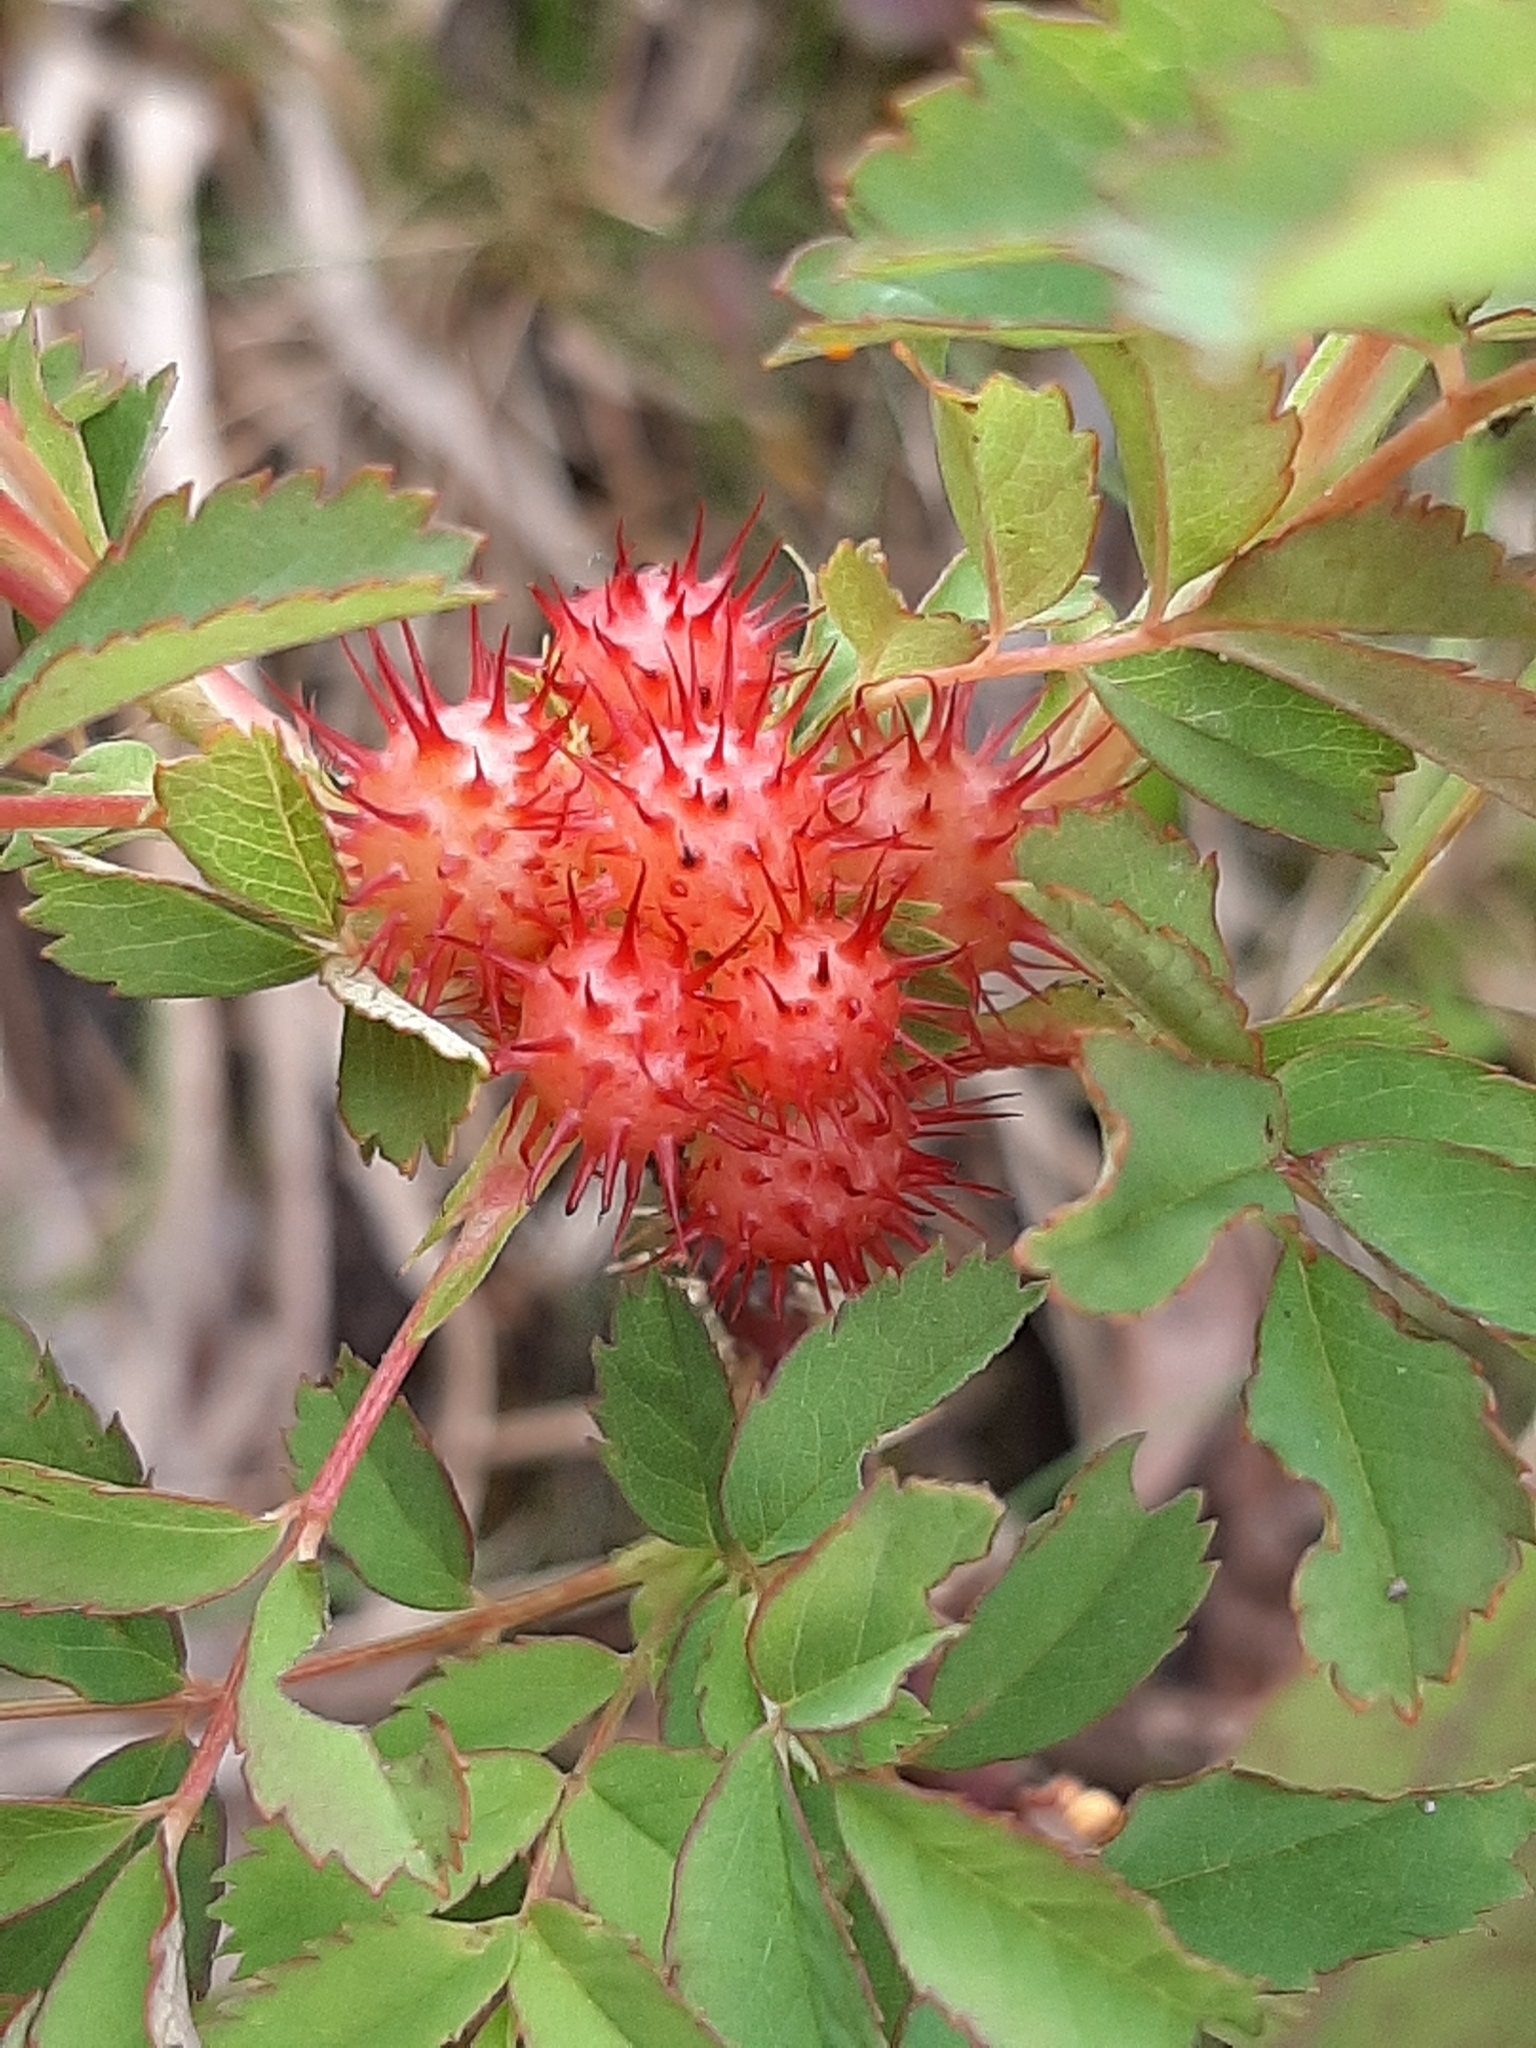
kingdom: Animalia
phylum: Arthropoda
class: Insecta
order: Hymenoptera
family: Cynipidae
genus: Diplolepis
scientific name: Diplolepis polita
